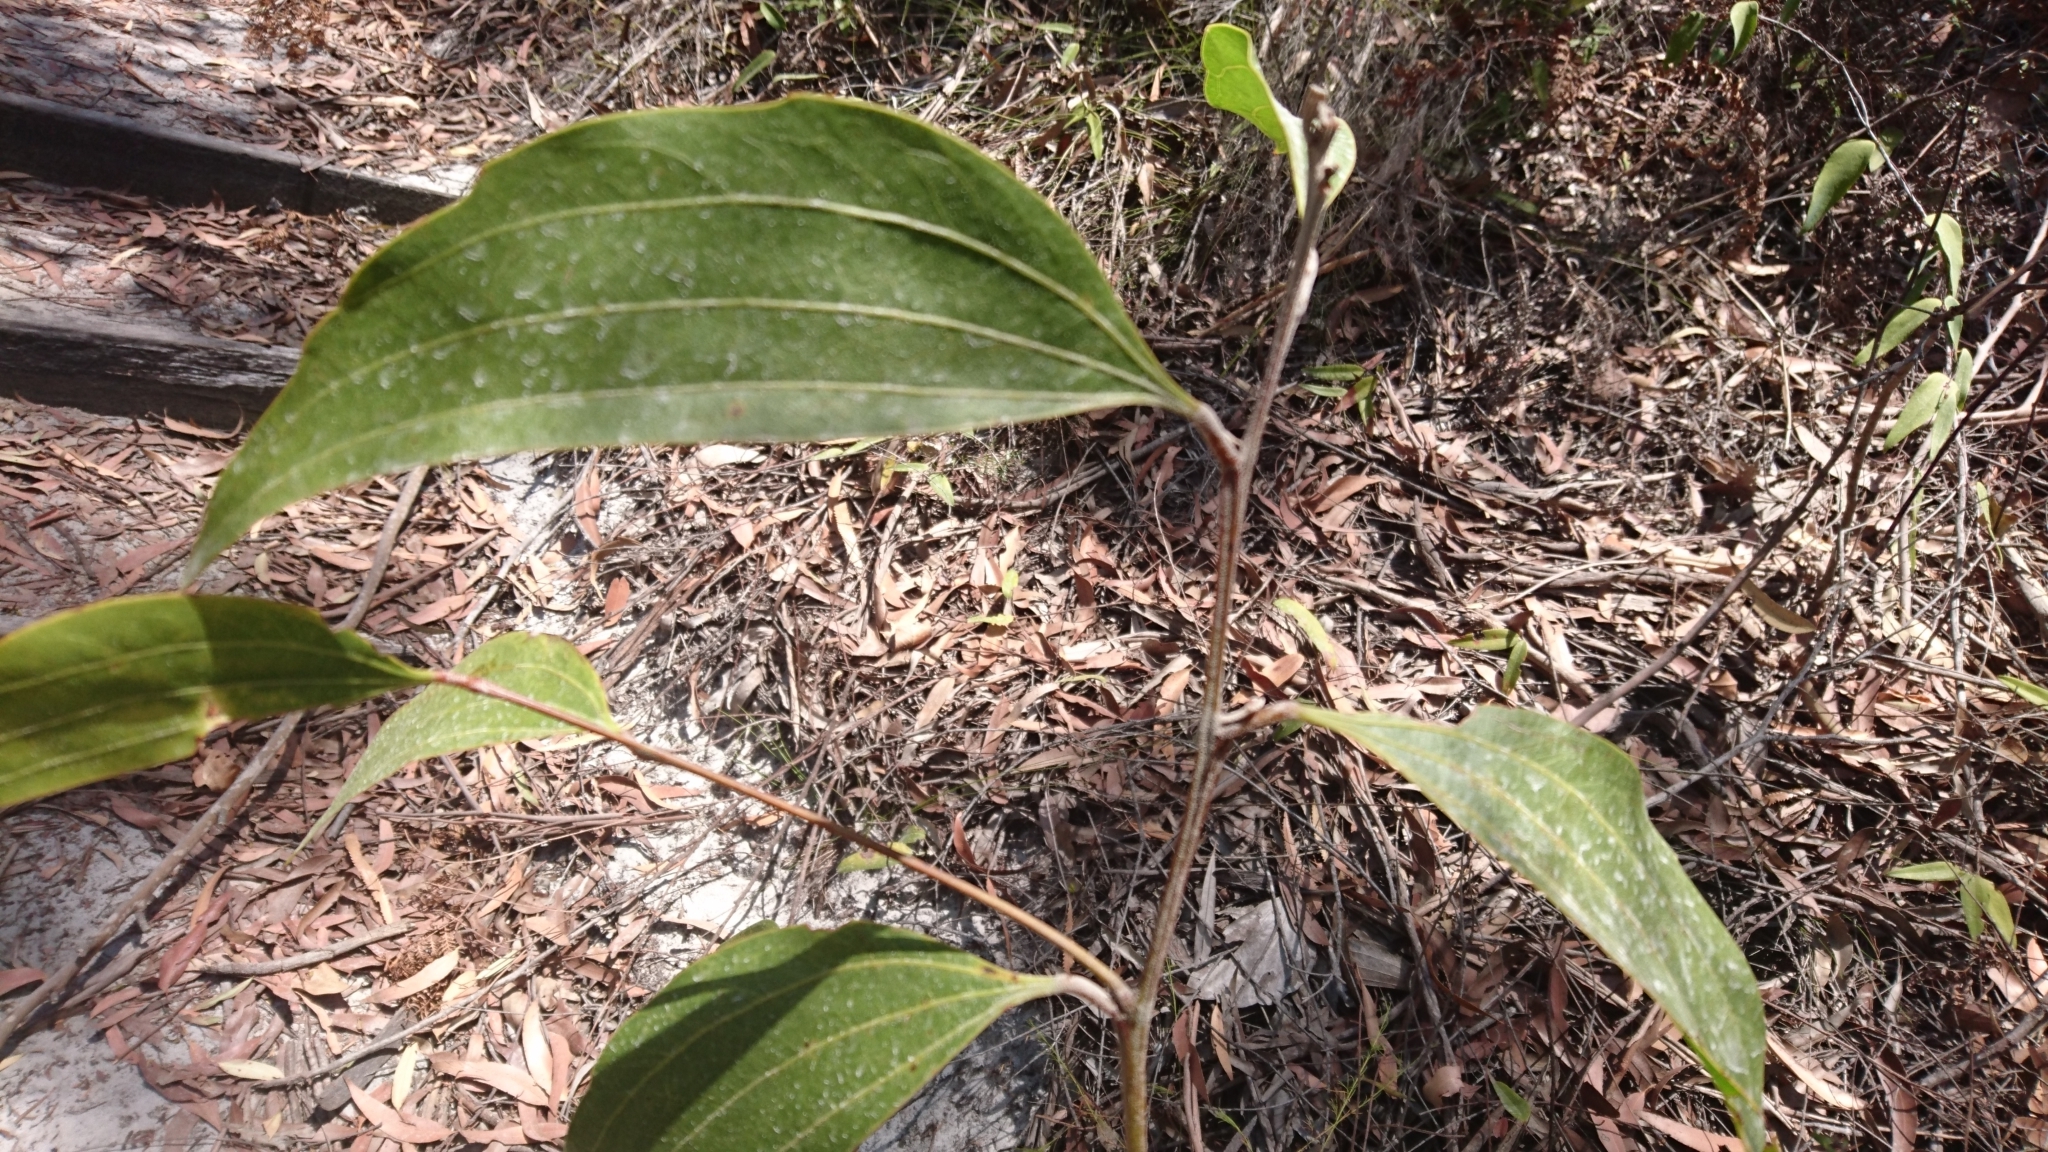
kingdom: Plantae
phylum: Tracheophyta
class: Magnoliopsida
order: Fabales
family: Fabaceae
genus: Acacia
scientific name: Acacia flavescens
